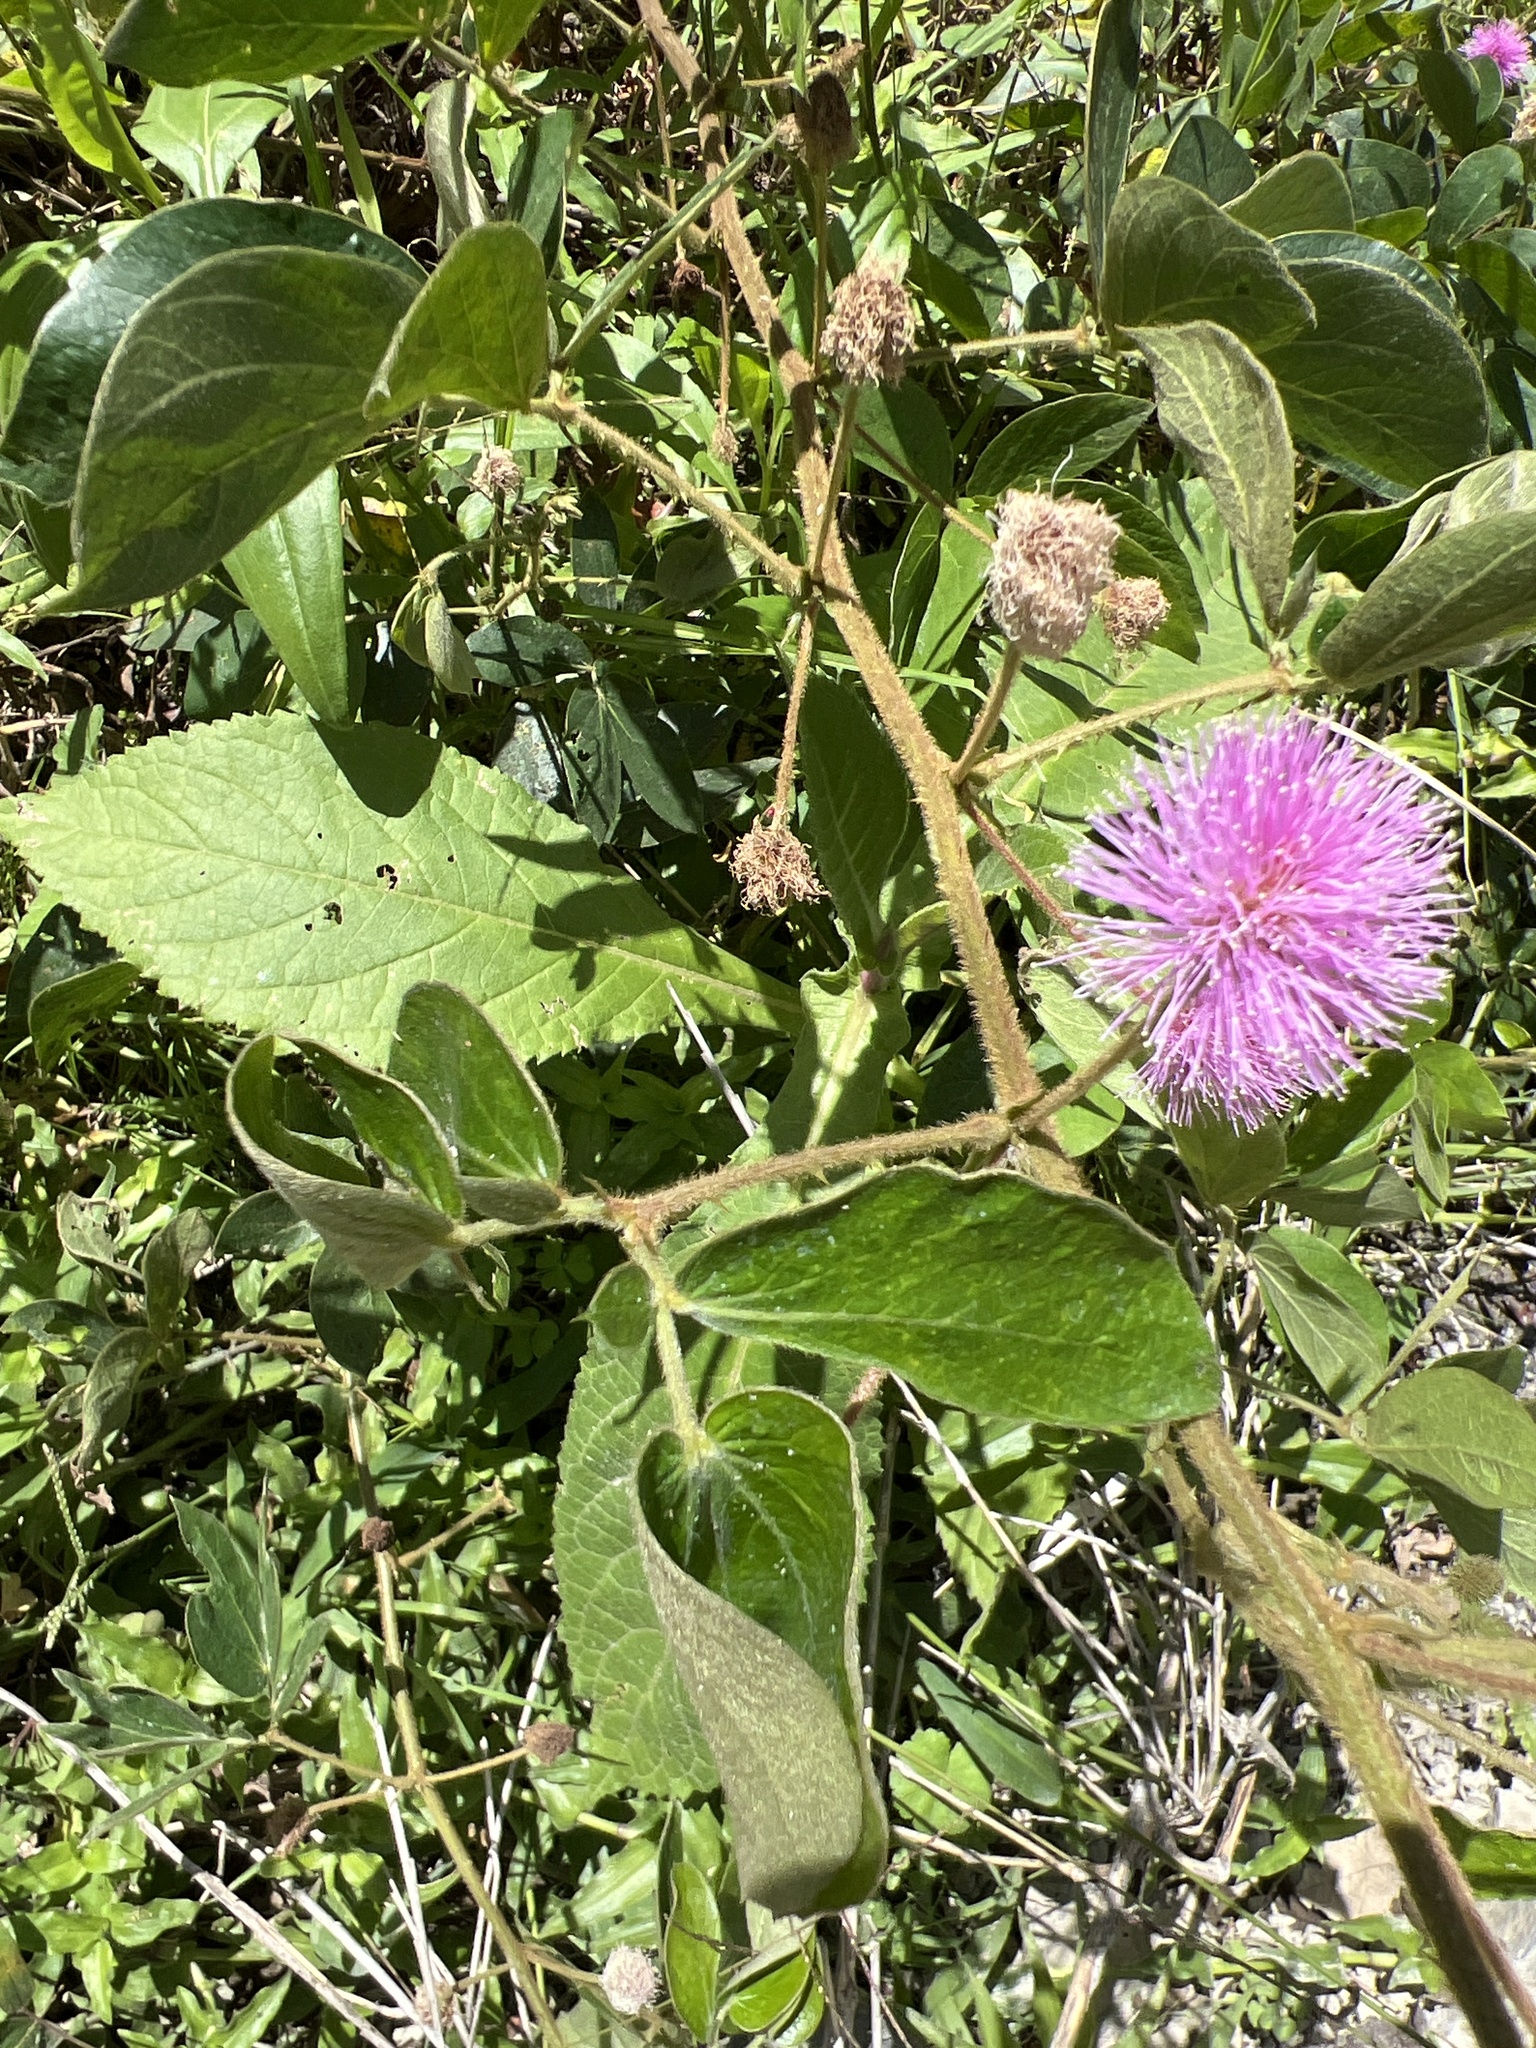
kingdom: Plantae
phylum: Tracheophyta
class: Magnoliopsida
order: Fabales
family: Fabaceae
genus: Mimosa
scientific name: Mimosa albida
